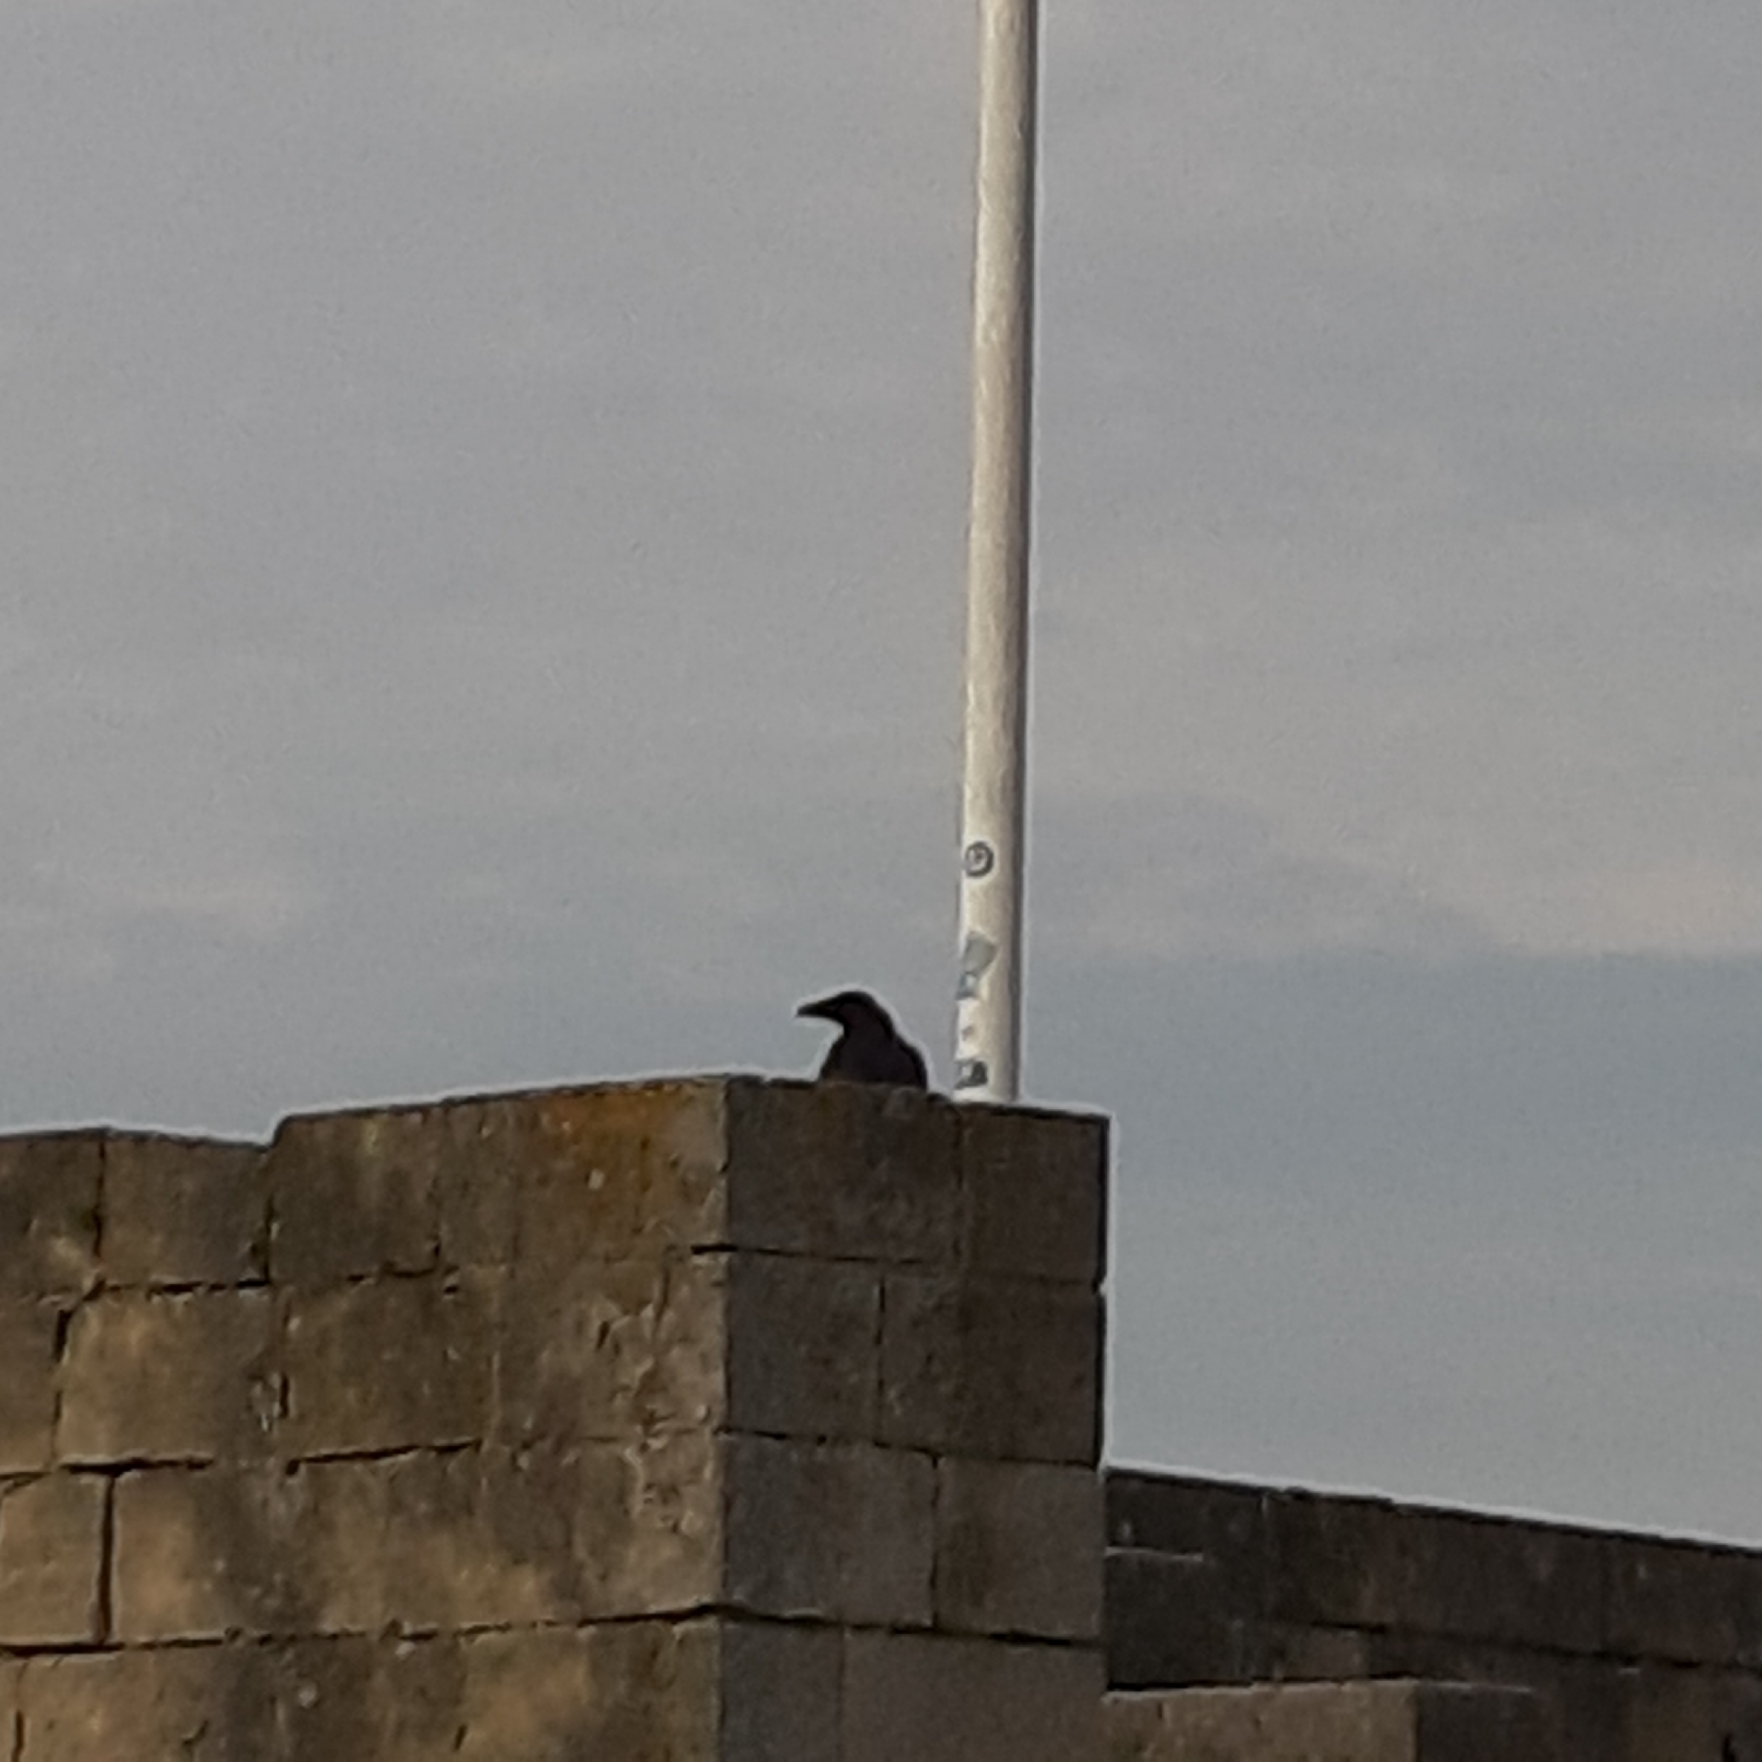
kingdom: Animalia
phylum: Chordata
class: Aves
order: Passeriformes
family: Corvidae
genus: Corvus
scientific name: Corvus corone
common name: Carrion crow
